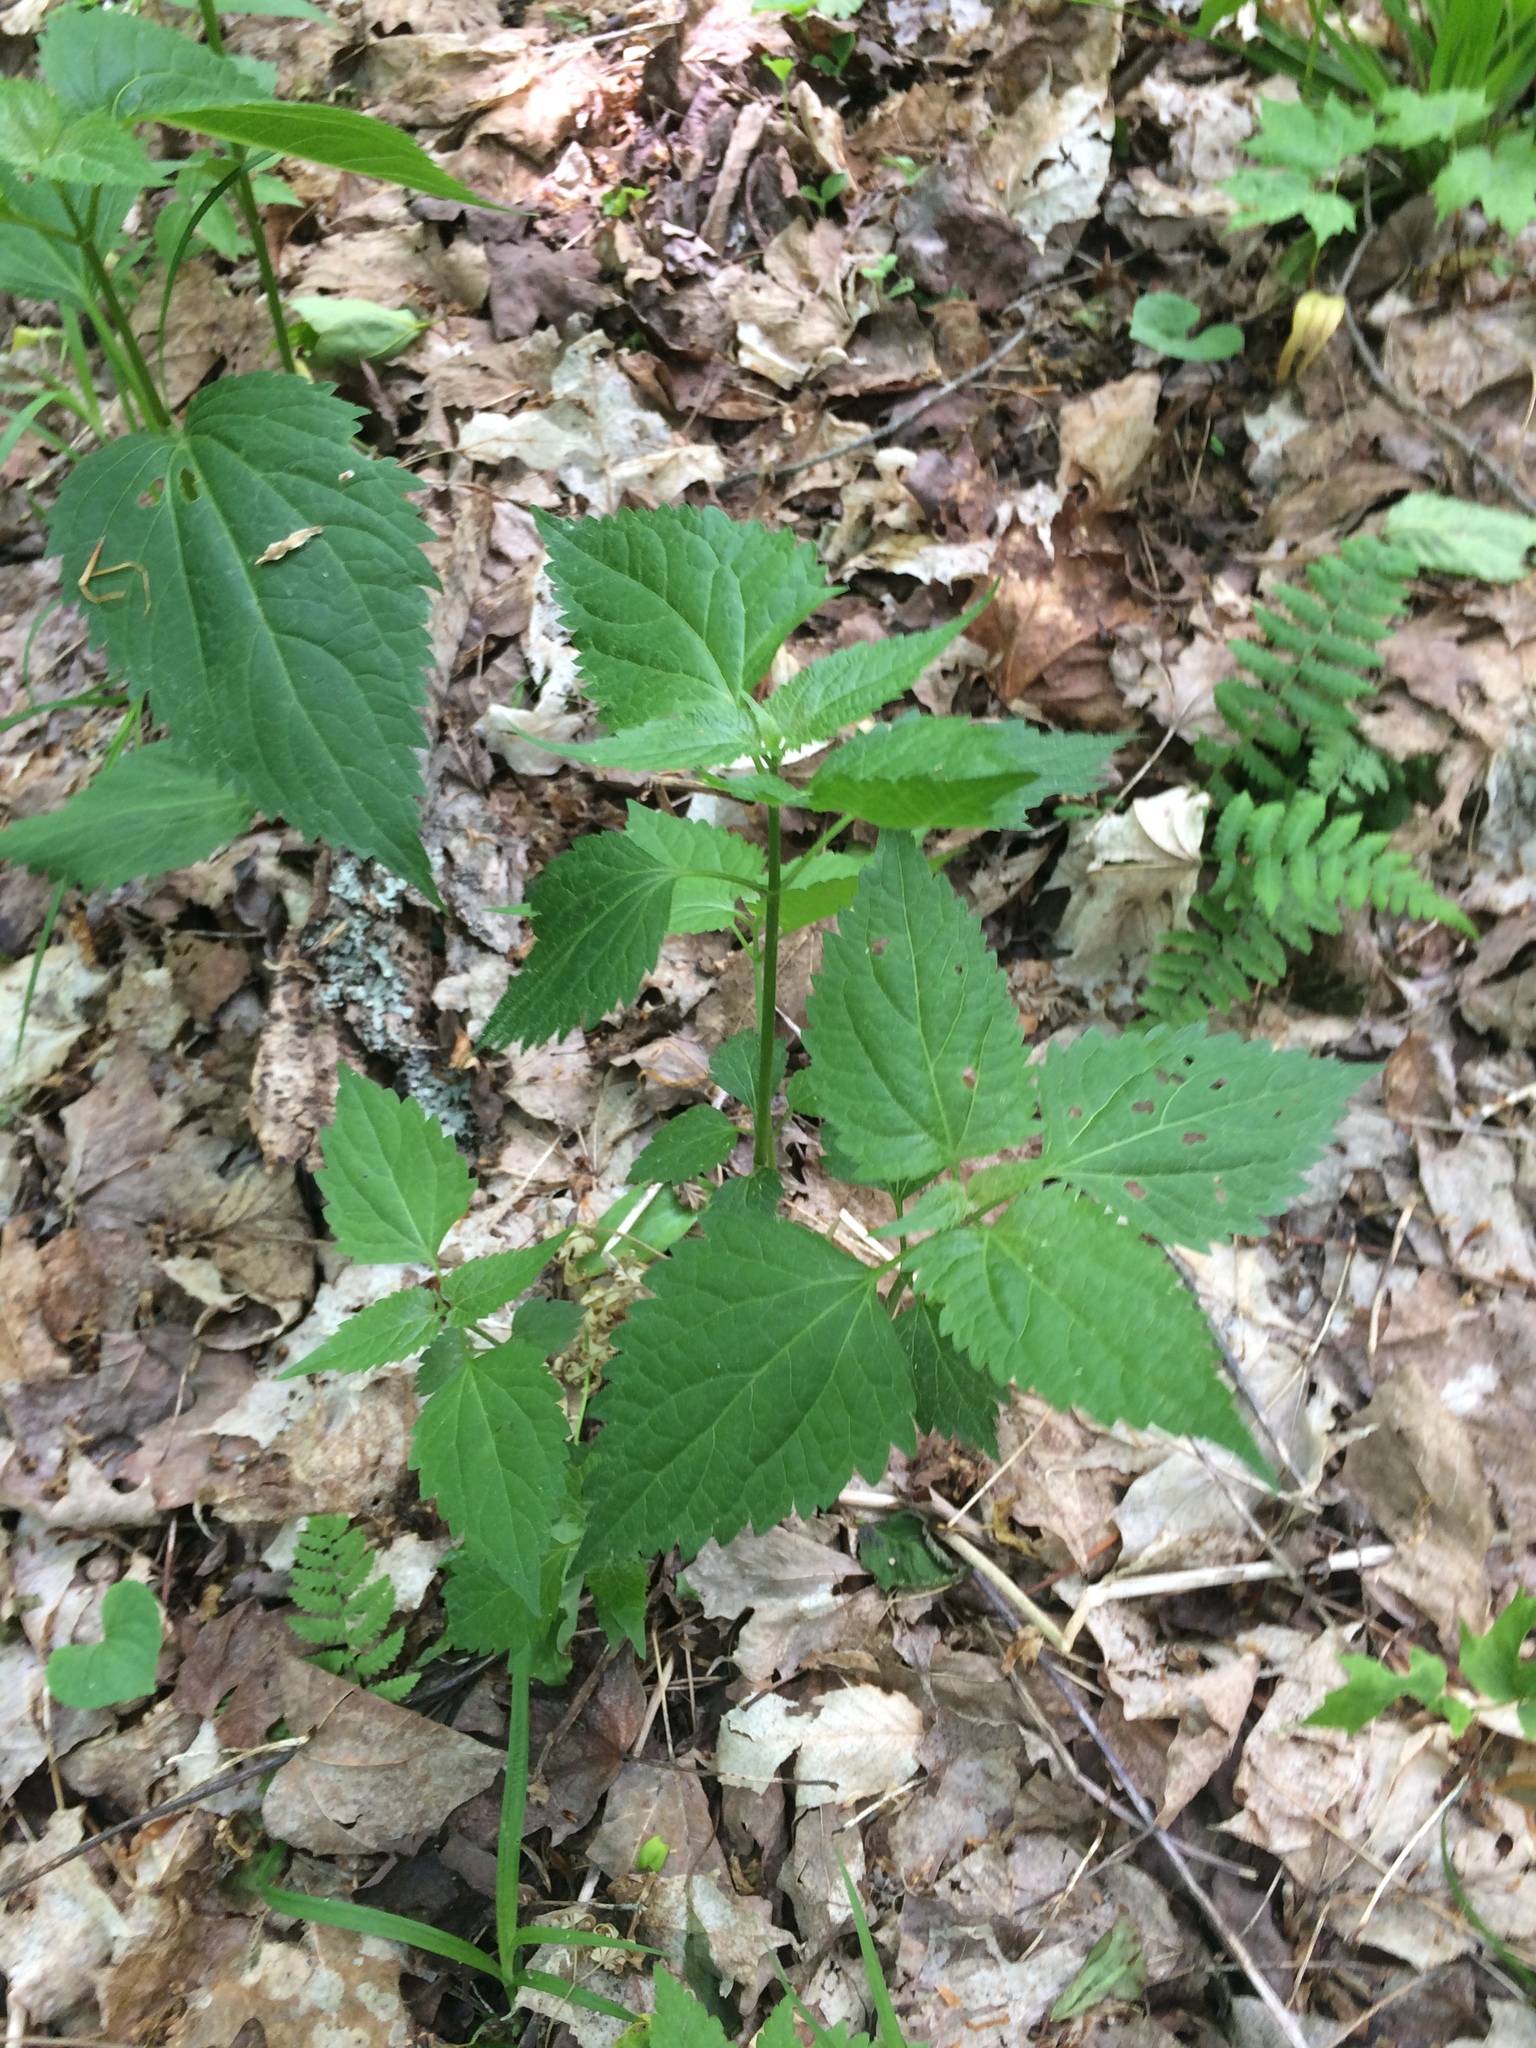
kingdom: Plantae
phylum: Tracheophyta
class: Magnoliopsida
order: Asterales
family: Asteraceae
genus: Ageratina
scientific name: Ageratina altissima
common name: White snakeroot
